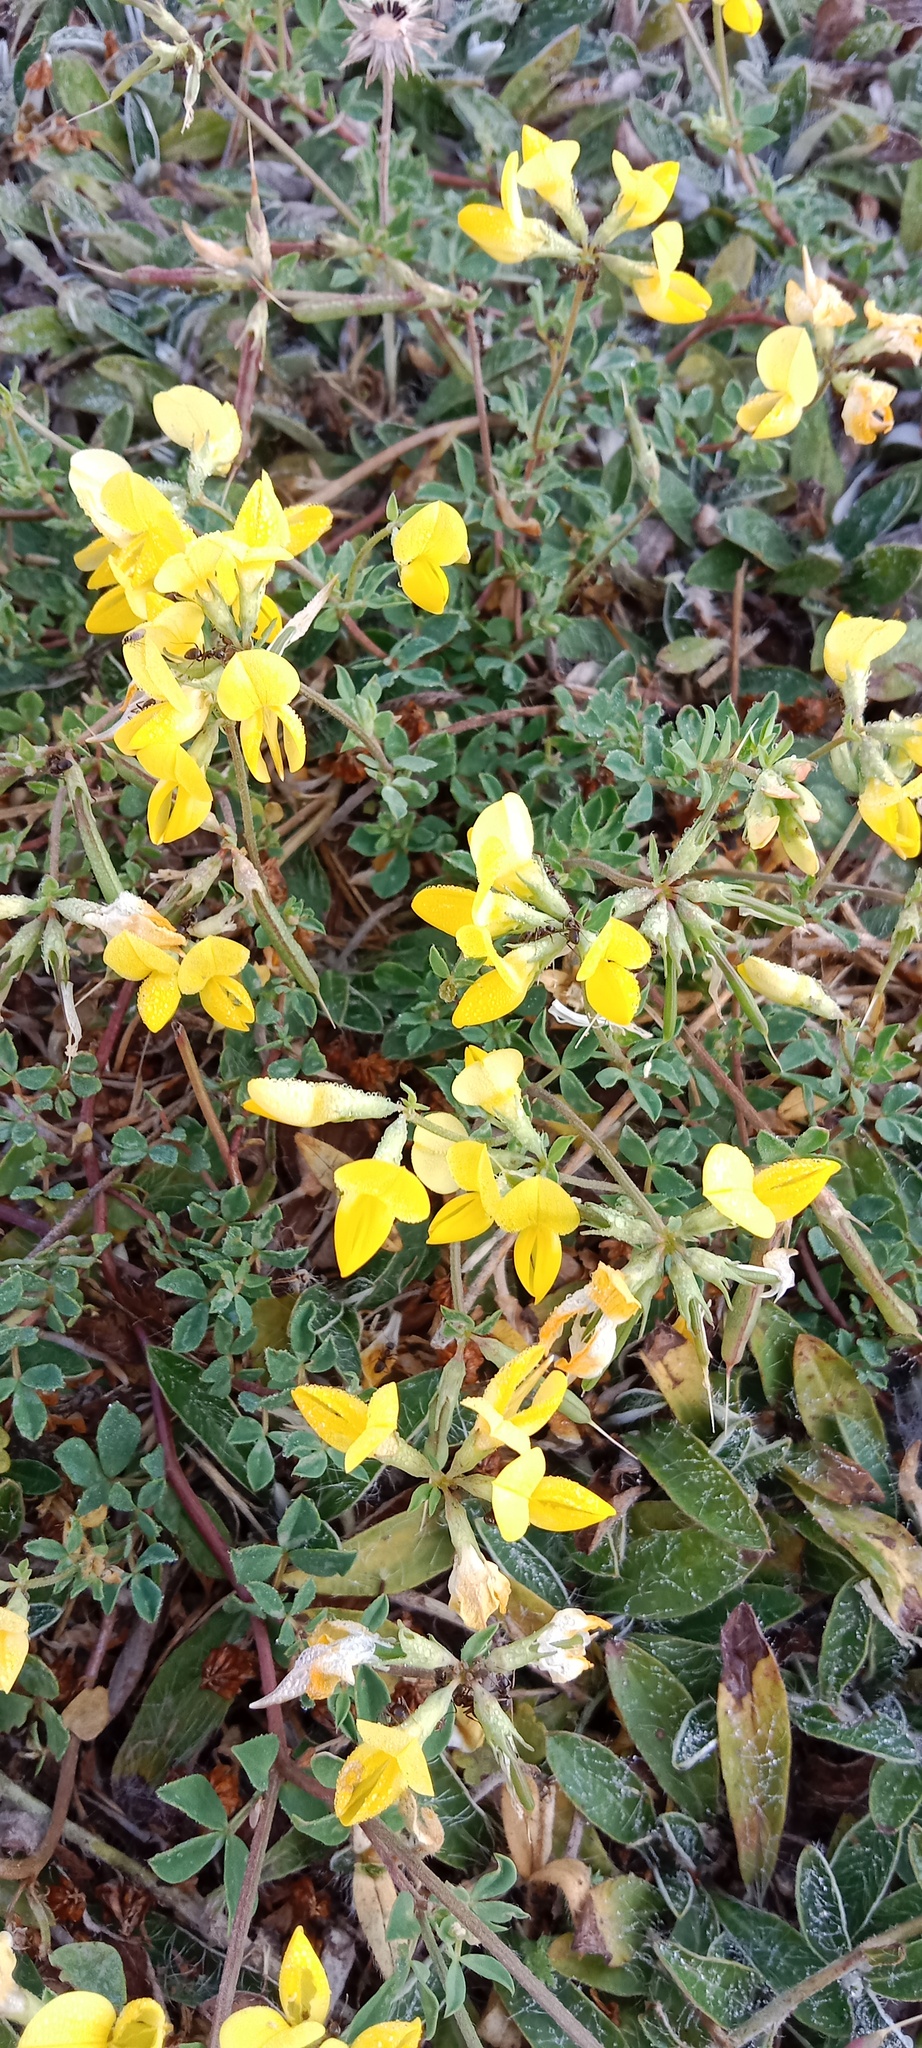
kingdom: Plantae
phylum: Tracheophyta
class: Magnoliopsida
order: Fabales
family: Fabaceae
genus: Lotus
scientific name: Lotus corniculatus
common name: Common bird's-foot-trefoil
